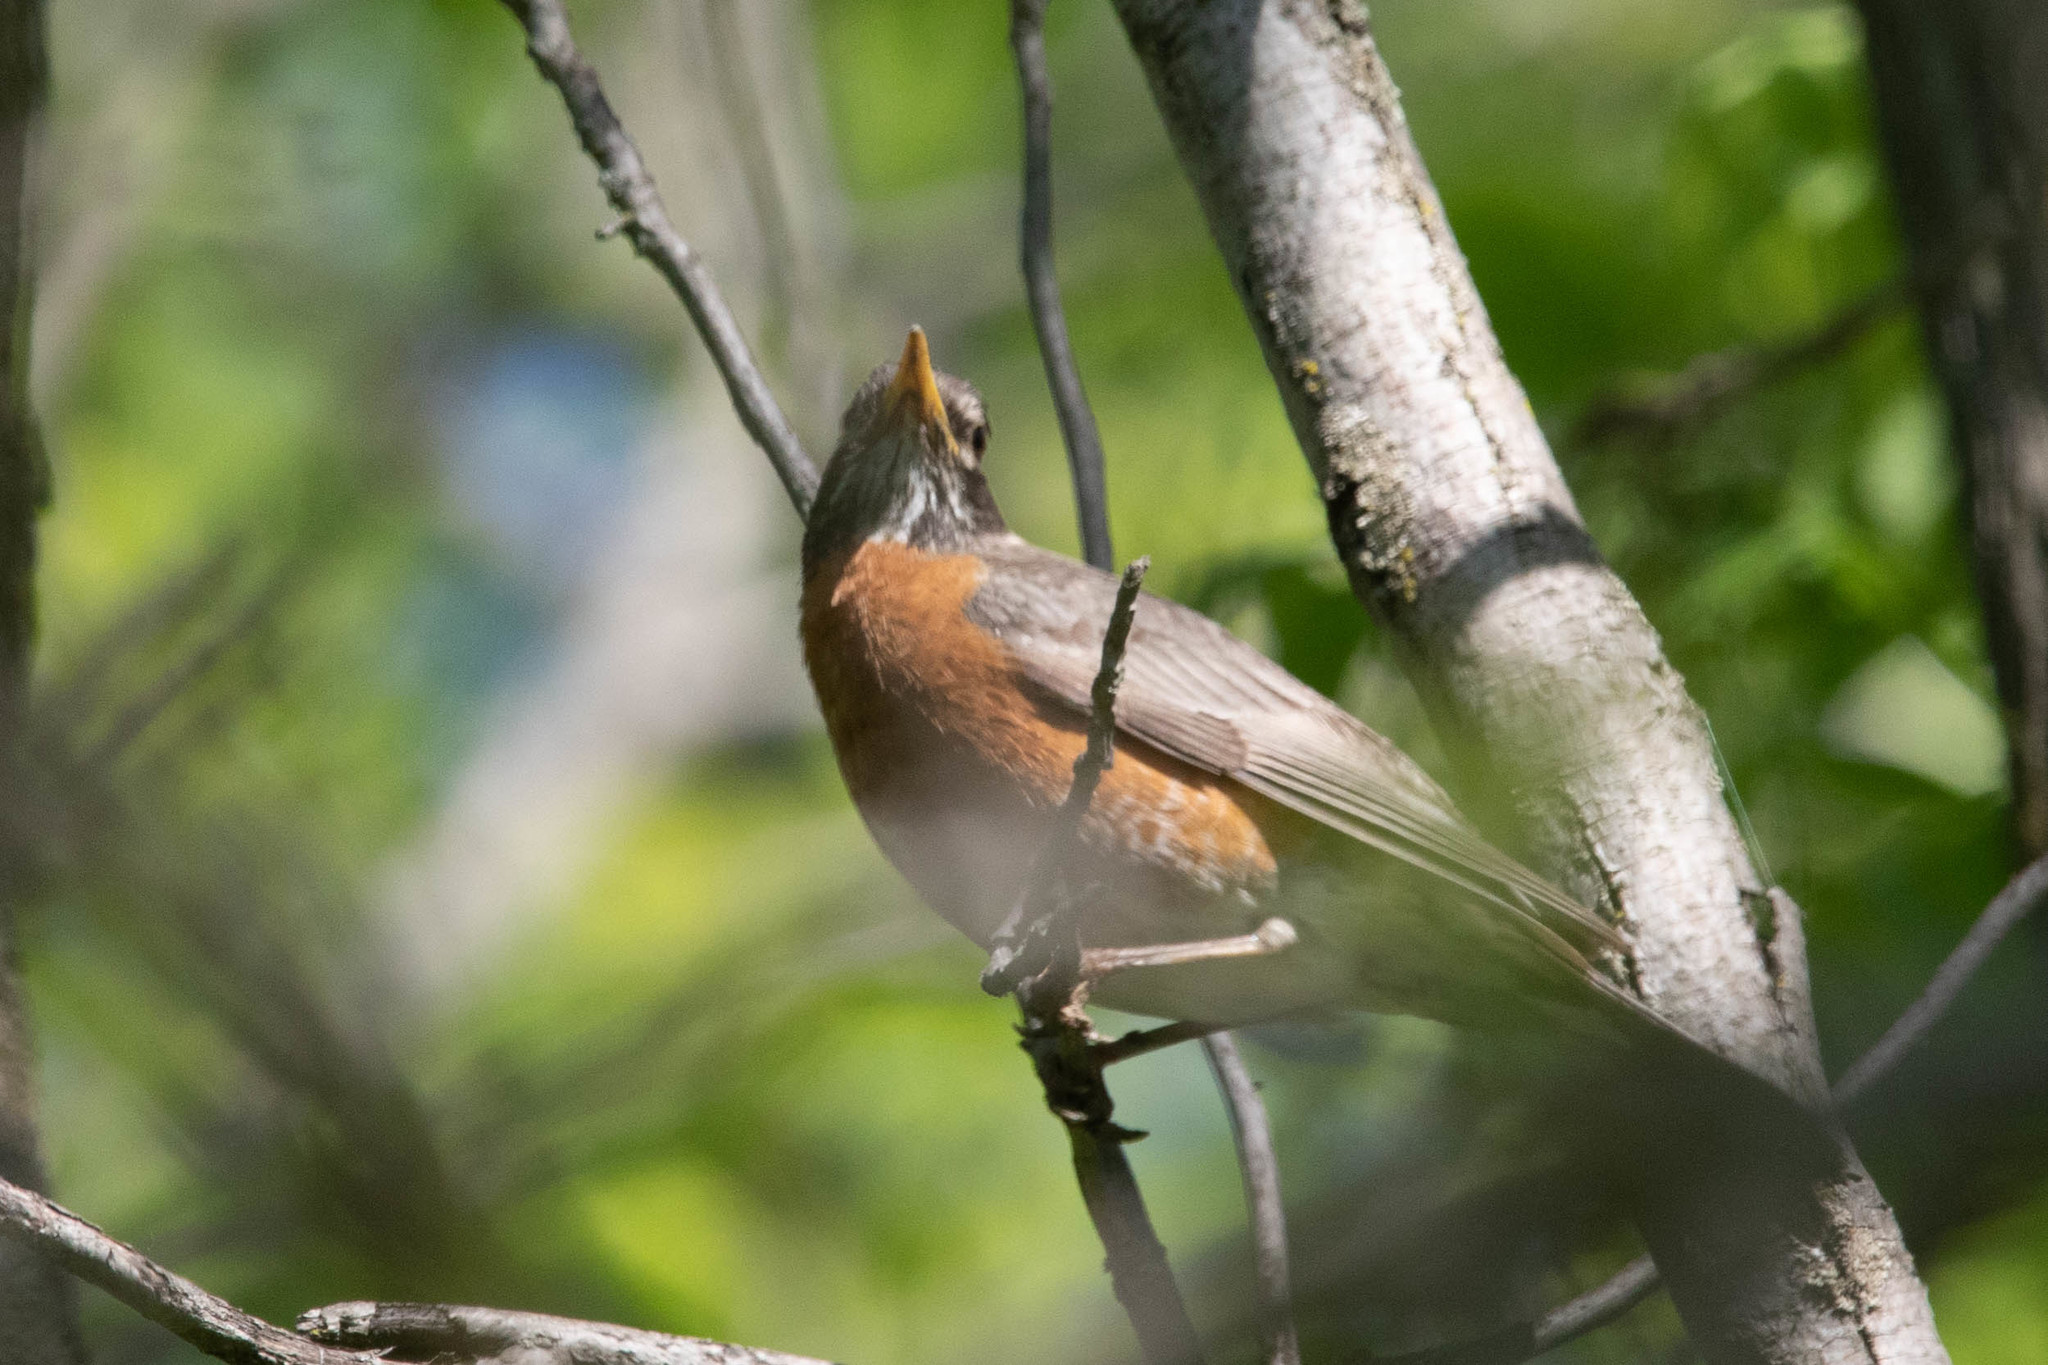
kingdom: Animalia
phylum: Chordata
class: Aves
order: Passeriformes
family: Turdidae
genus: Turdus
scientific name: Turdus migratorius
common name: American robin
